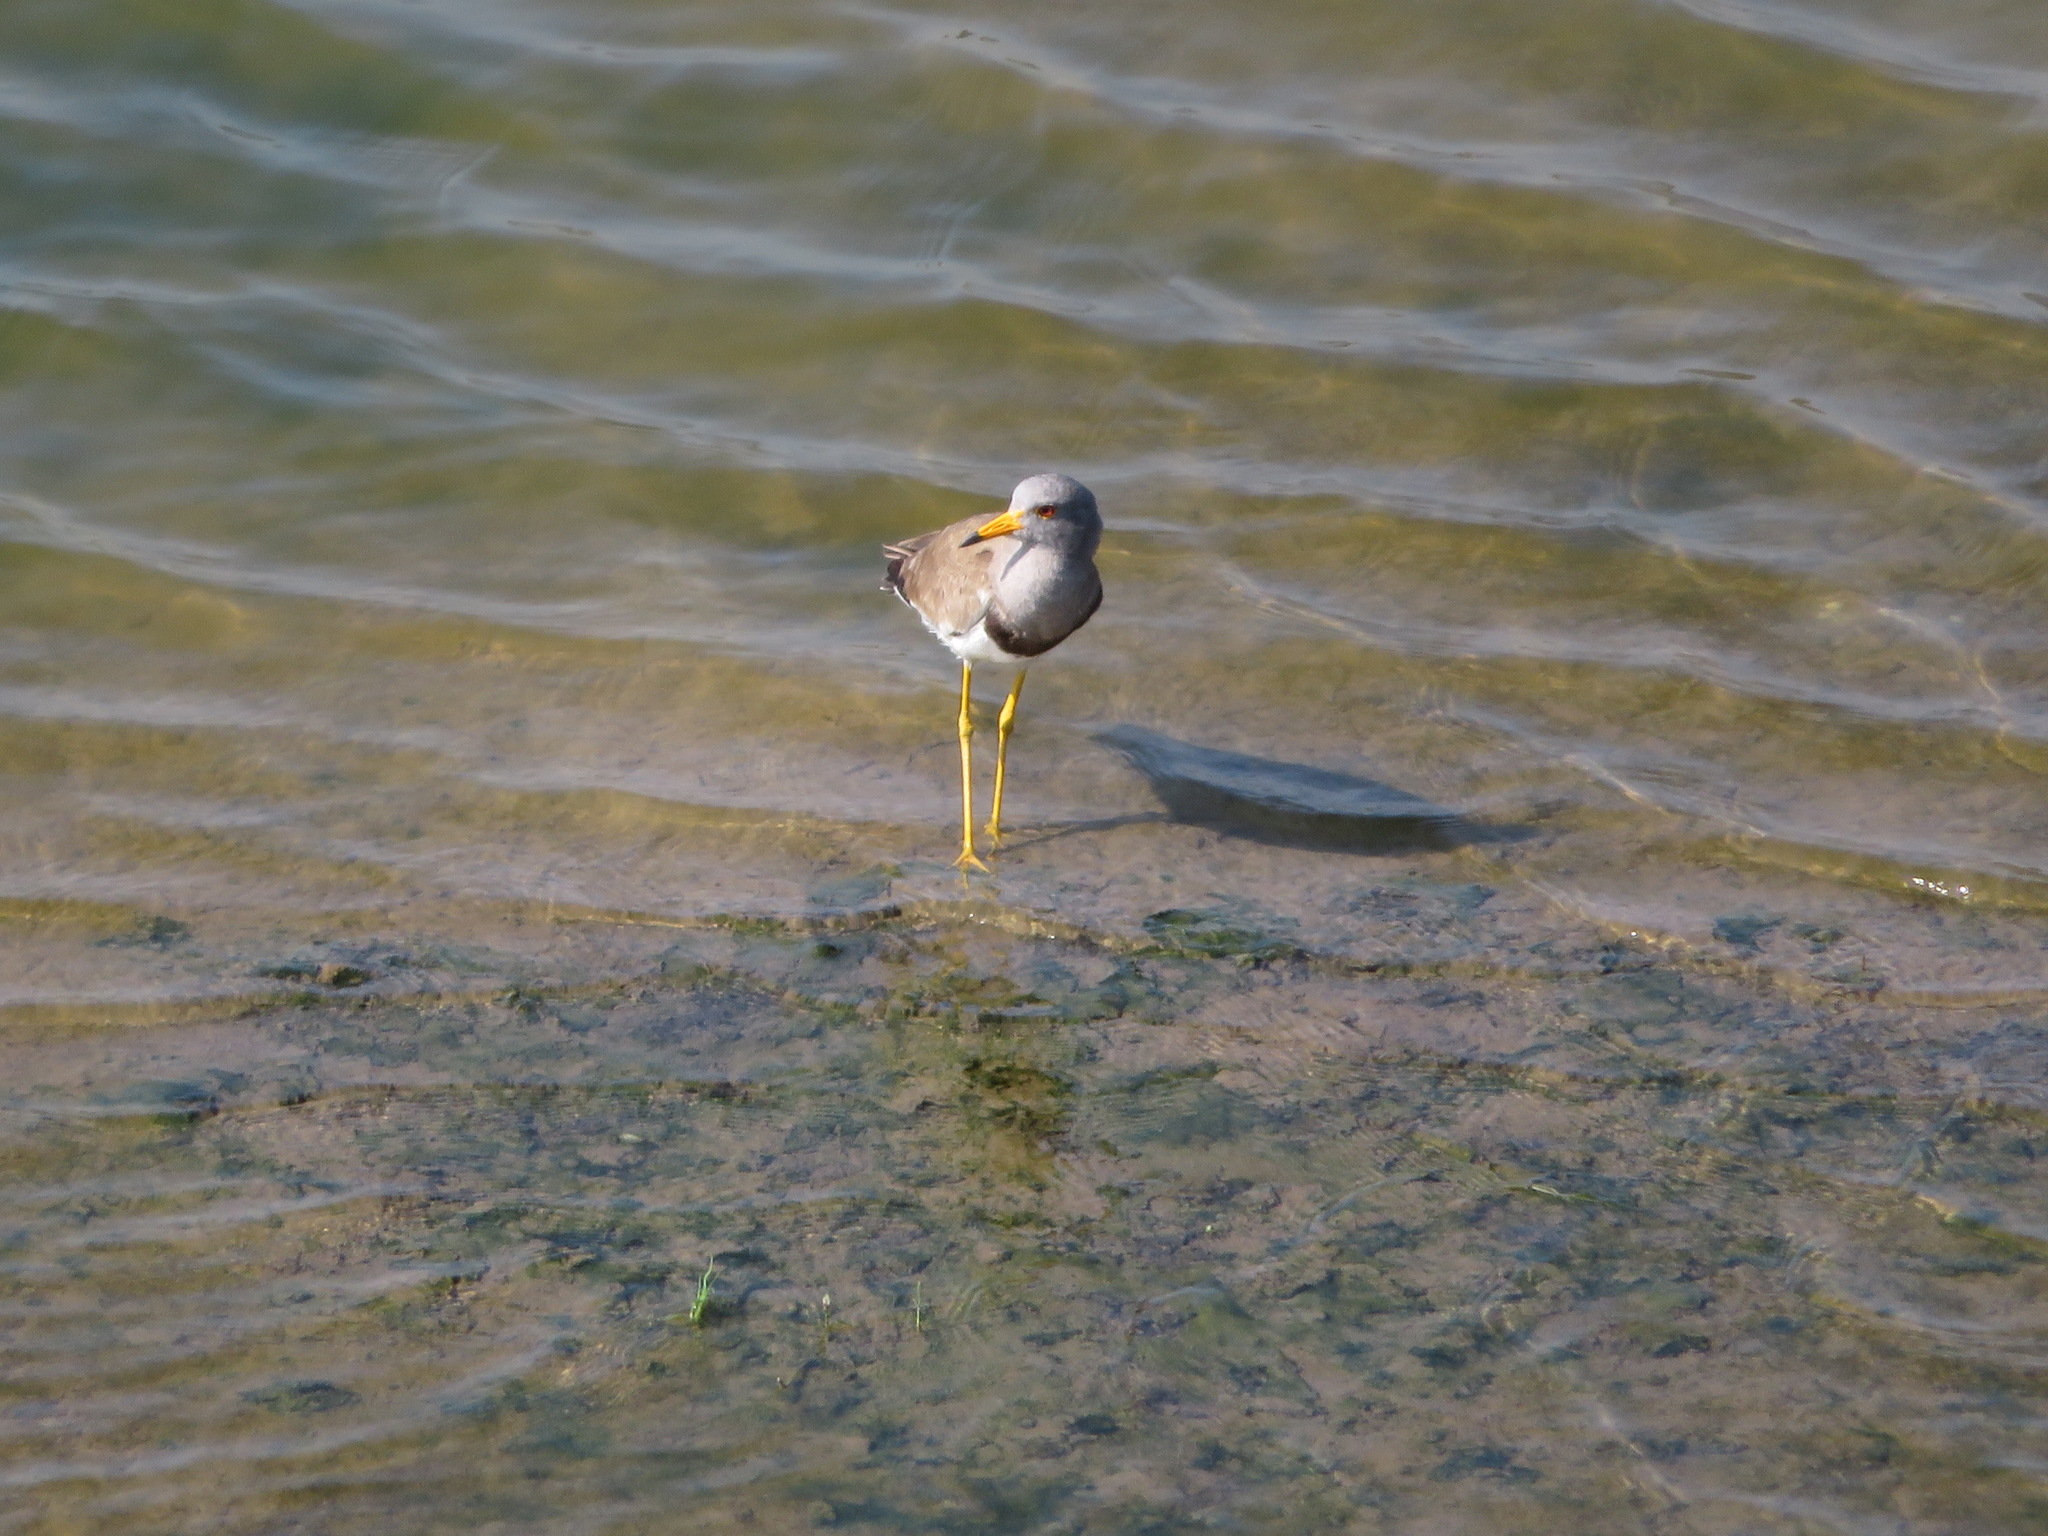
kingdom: Animalia
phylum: Chordata
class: Aves
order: Charadriiformes
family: Charadriidae
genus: Vanellus
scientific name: Vanellus cinereus
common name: Grey-headed lapwing
